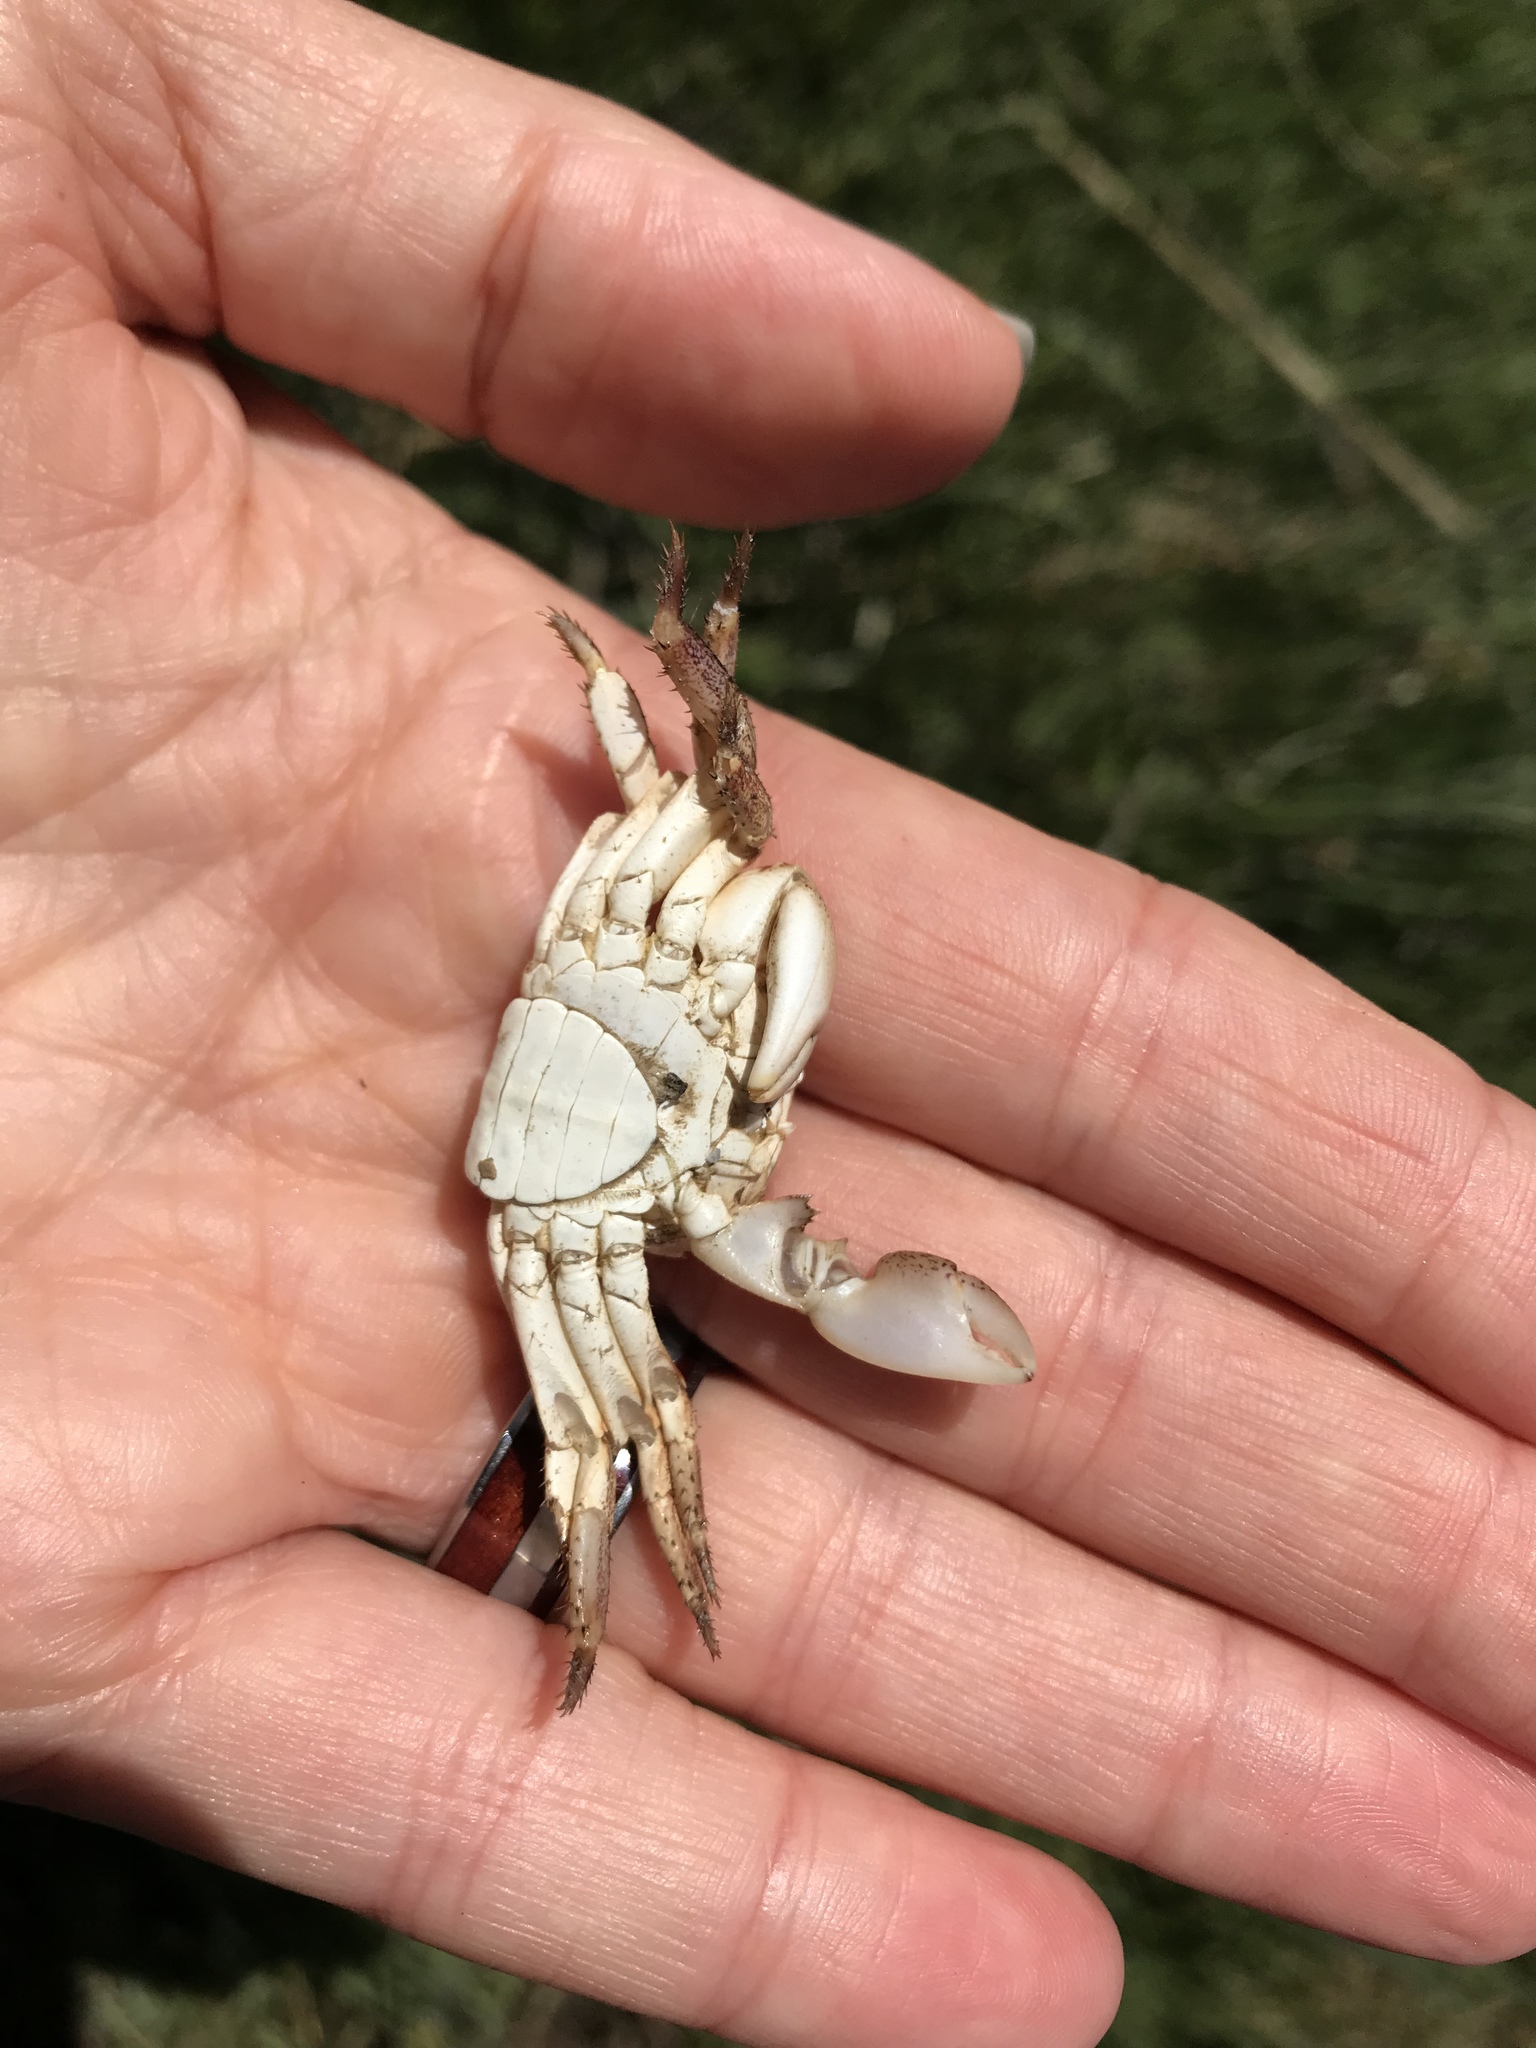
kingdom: Animalia
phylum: Arthropoda
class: Malacostraca
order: Decapoda
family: Grapsidae
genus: Pachygrapsus
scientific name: Pachygrapsus crassipes
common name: Striped shore crab
